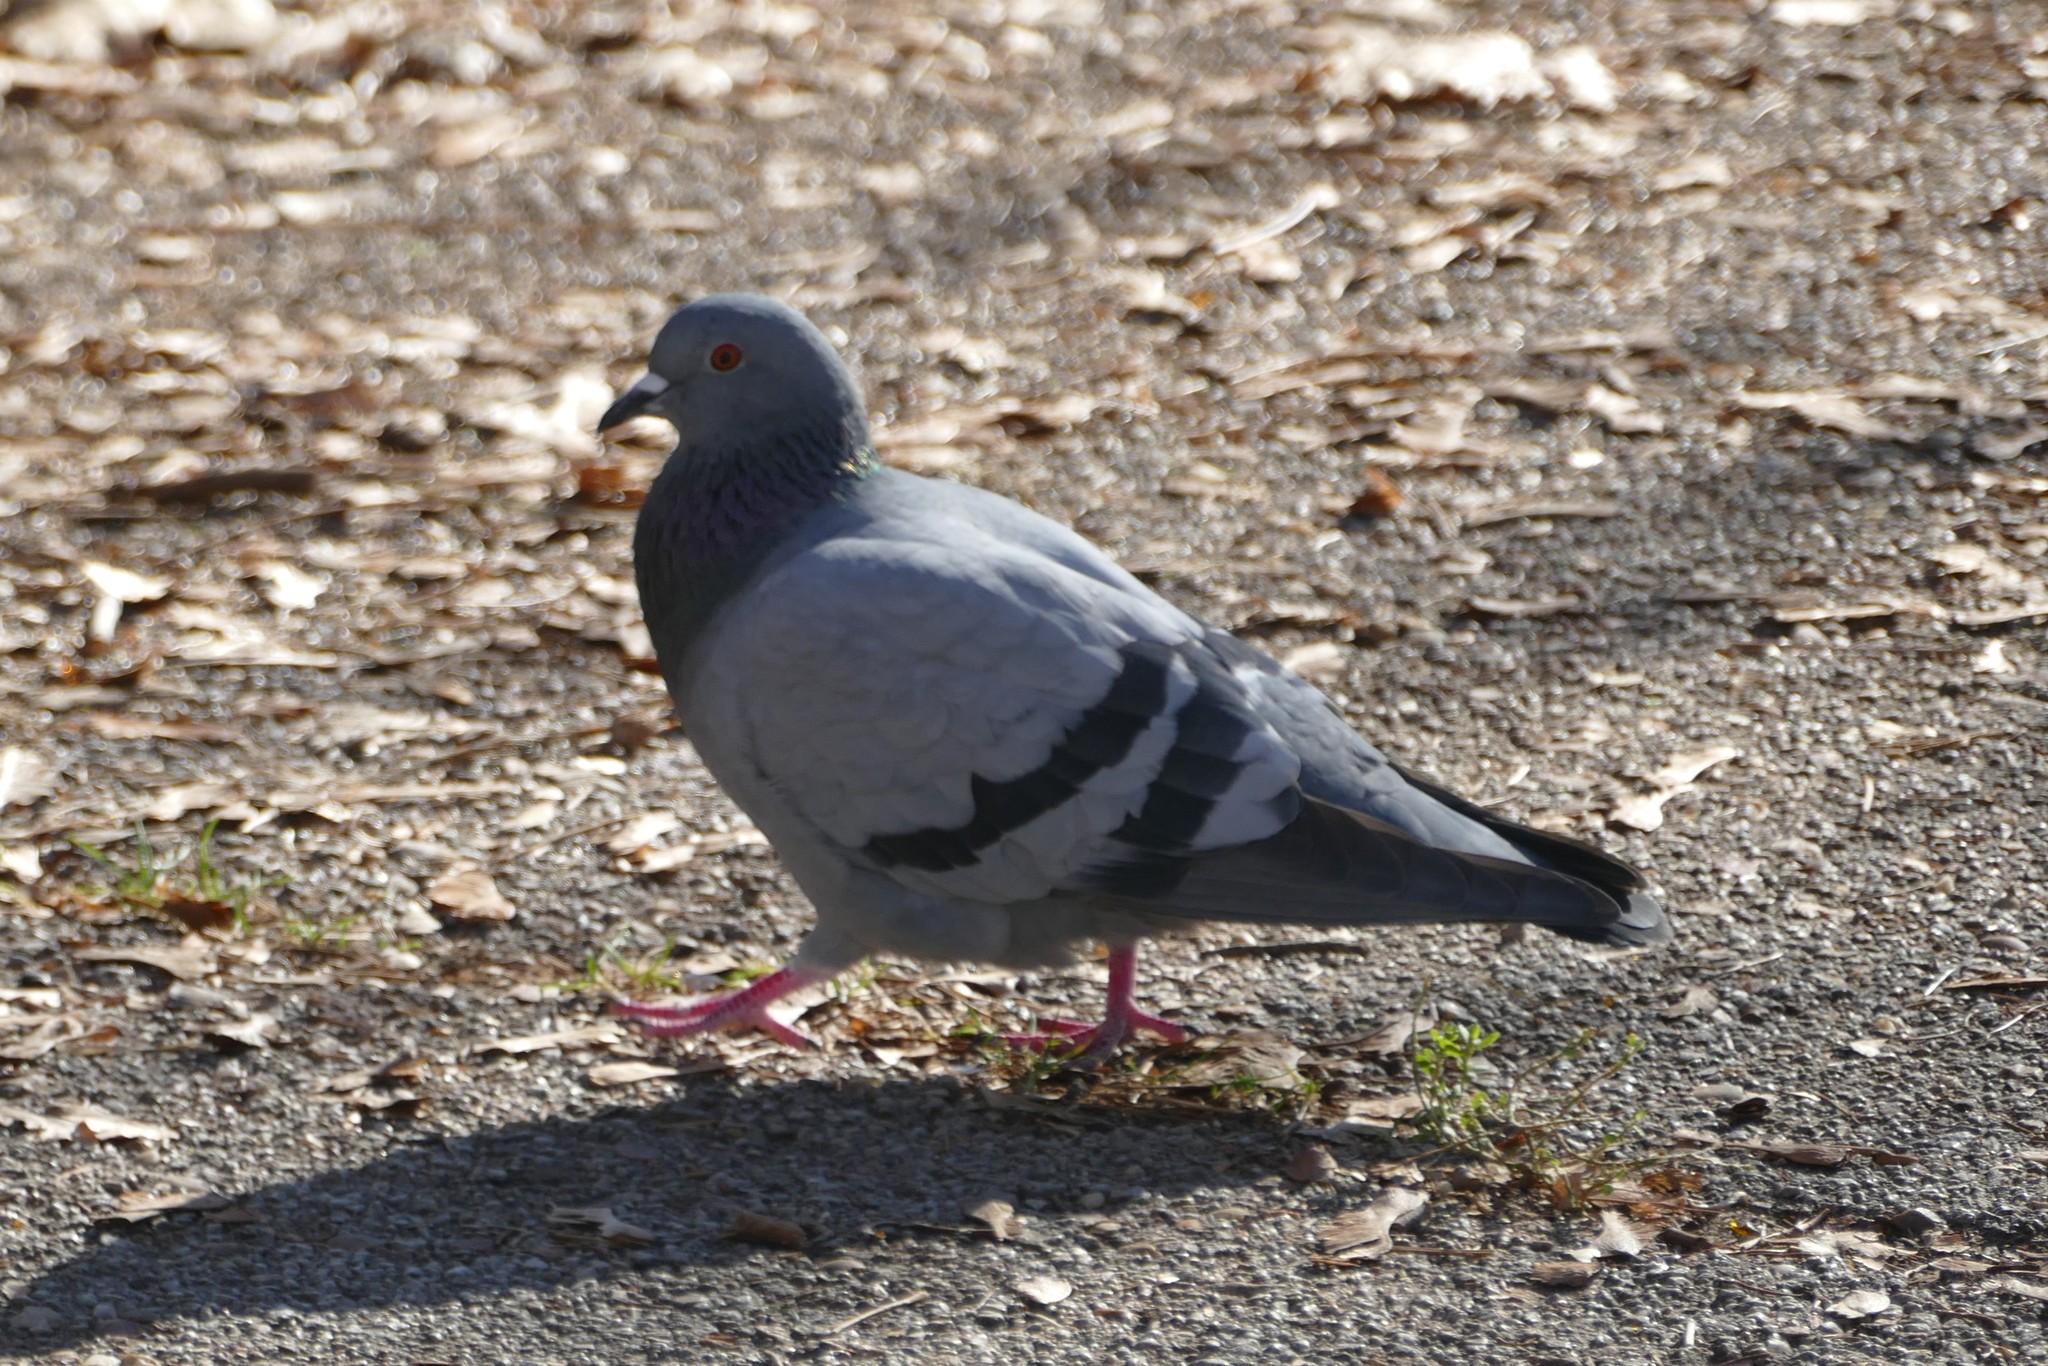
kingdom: Animalia
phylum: Chordata
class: Aves
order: Columbiformes
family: Columbidae
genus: Columba
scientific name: Columba livia
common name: Rock pigeon
